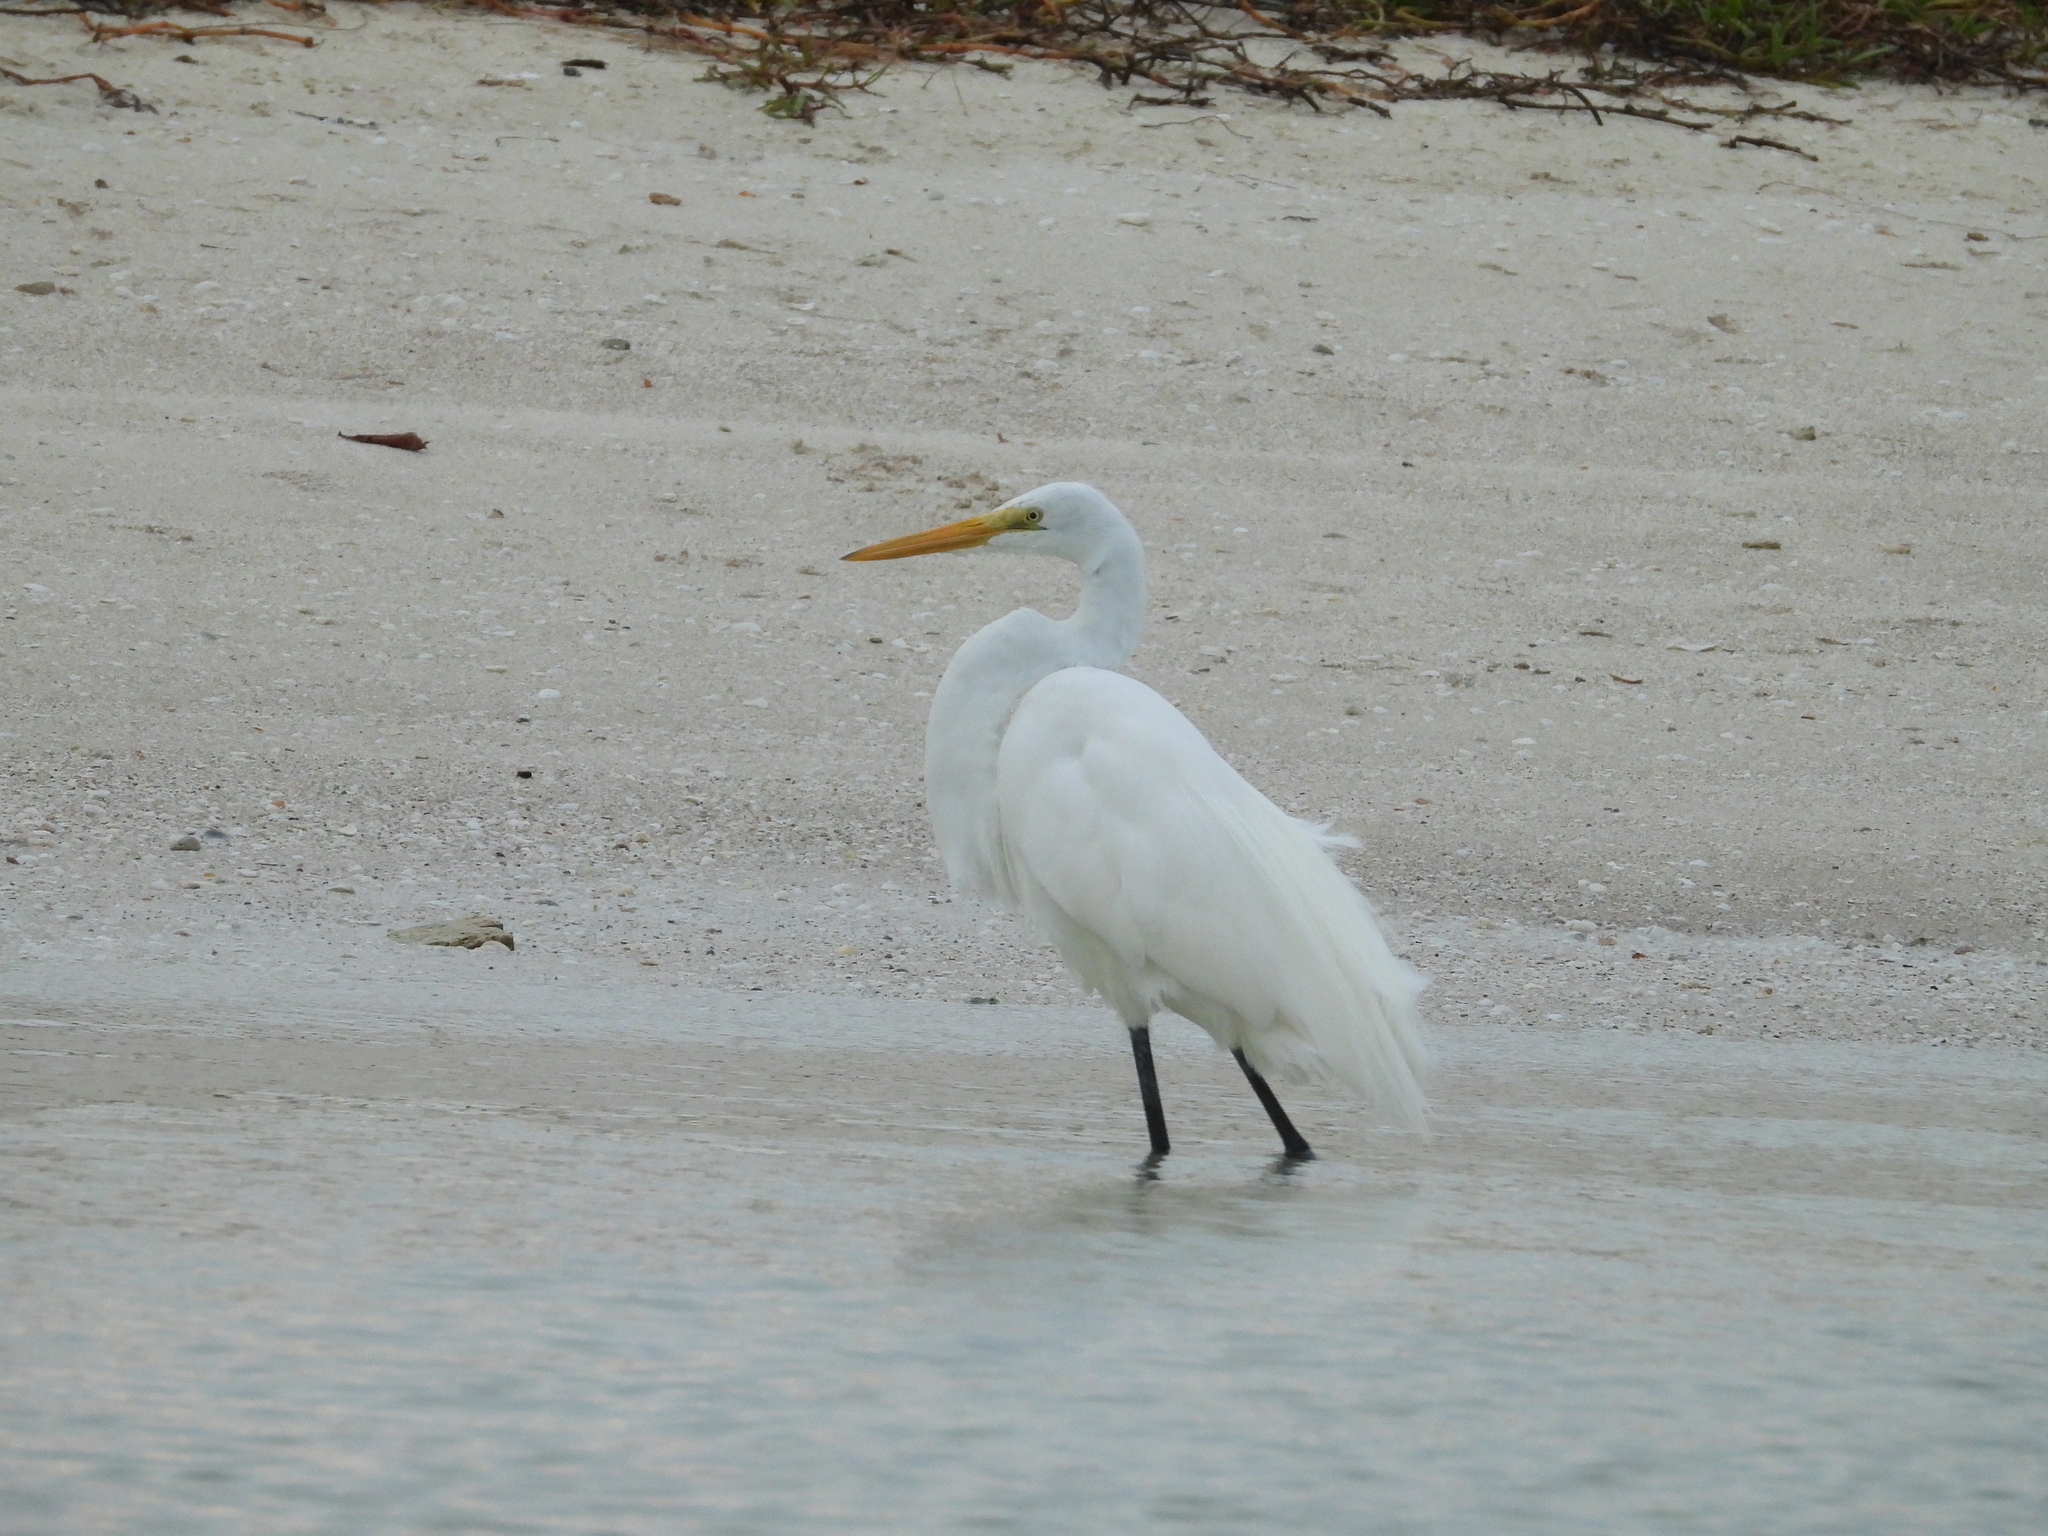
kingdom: Animalia
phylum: Chordata
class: Aves
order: Pelecaniformes
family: Ardeidae
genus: Ardea
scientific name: Ardea alba
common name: Great egret
